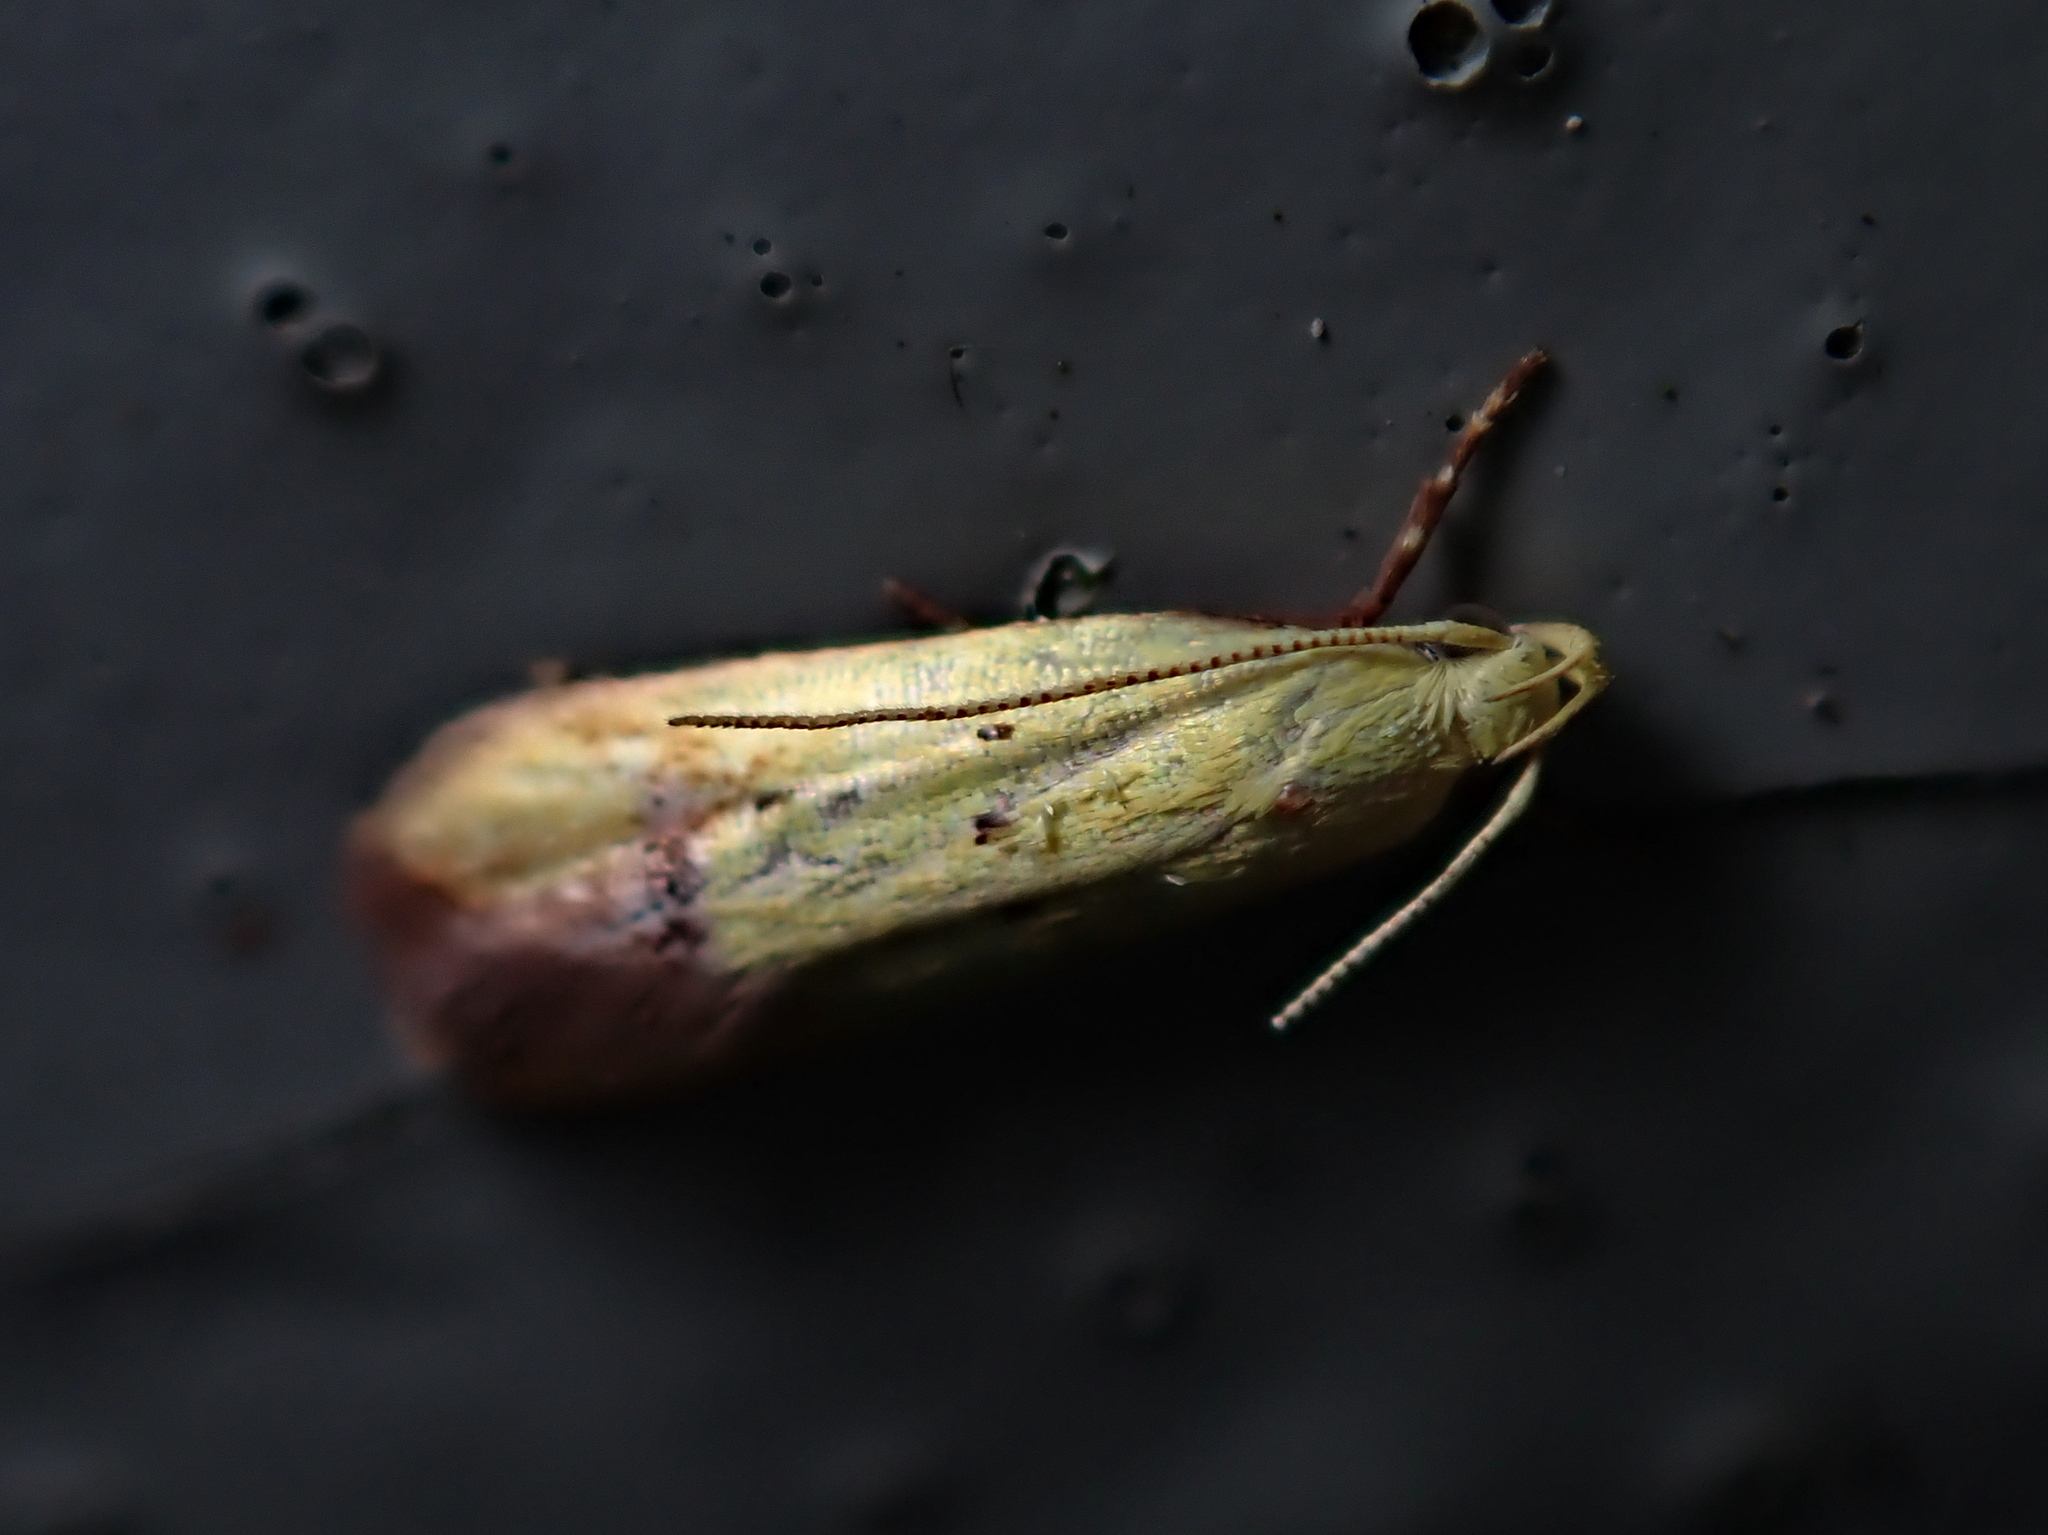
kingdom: Animalia
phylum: Arthropoda
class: Insecta
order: Lepidoptera
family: Oecophoridae
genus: Gymnobathra
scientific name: Gymnobathra flavidella
